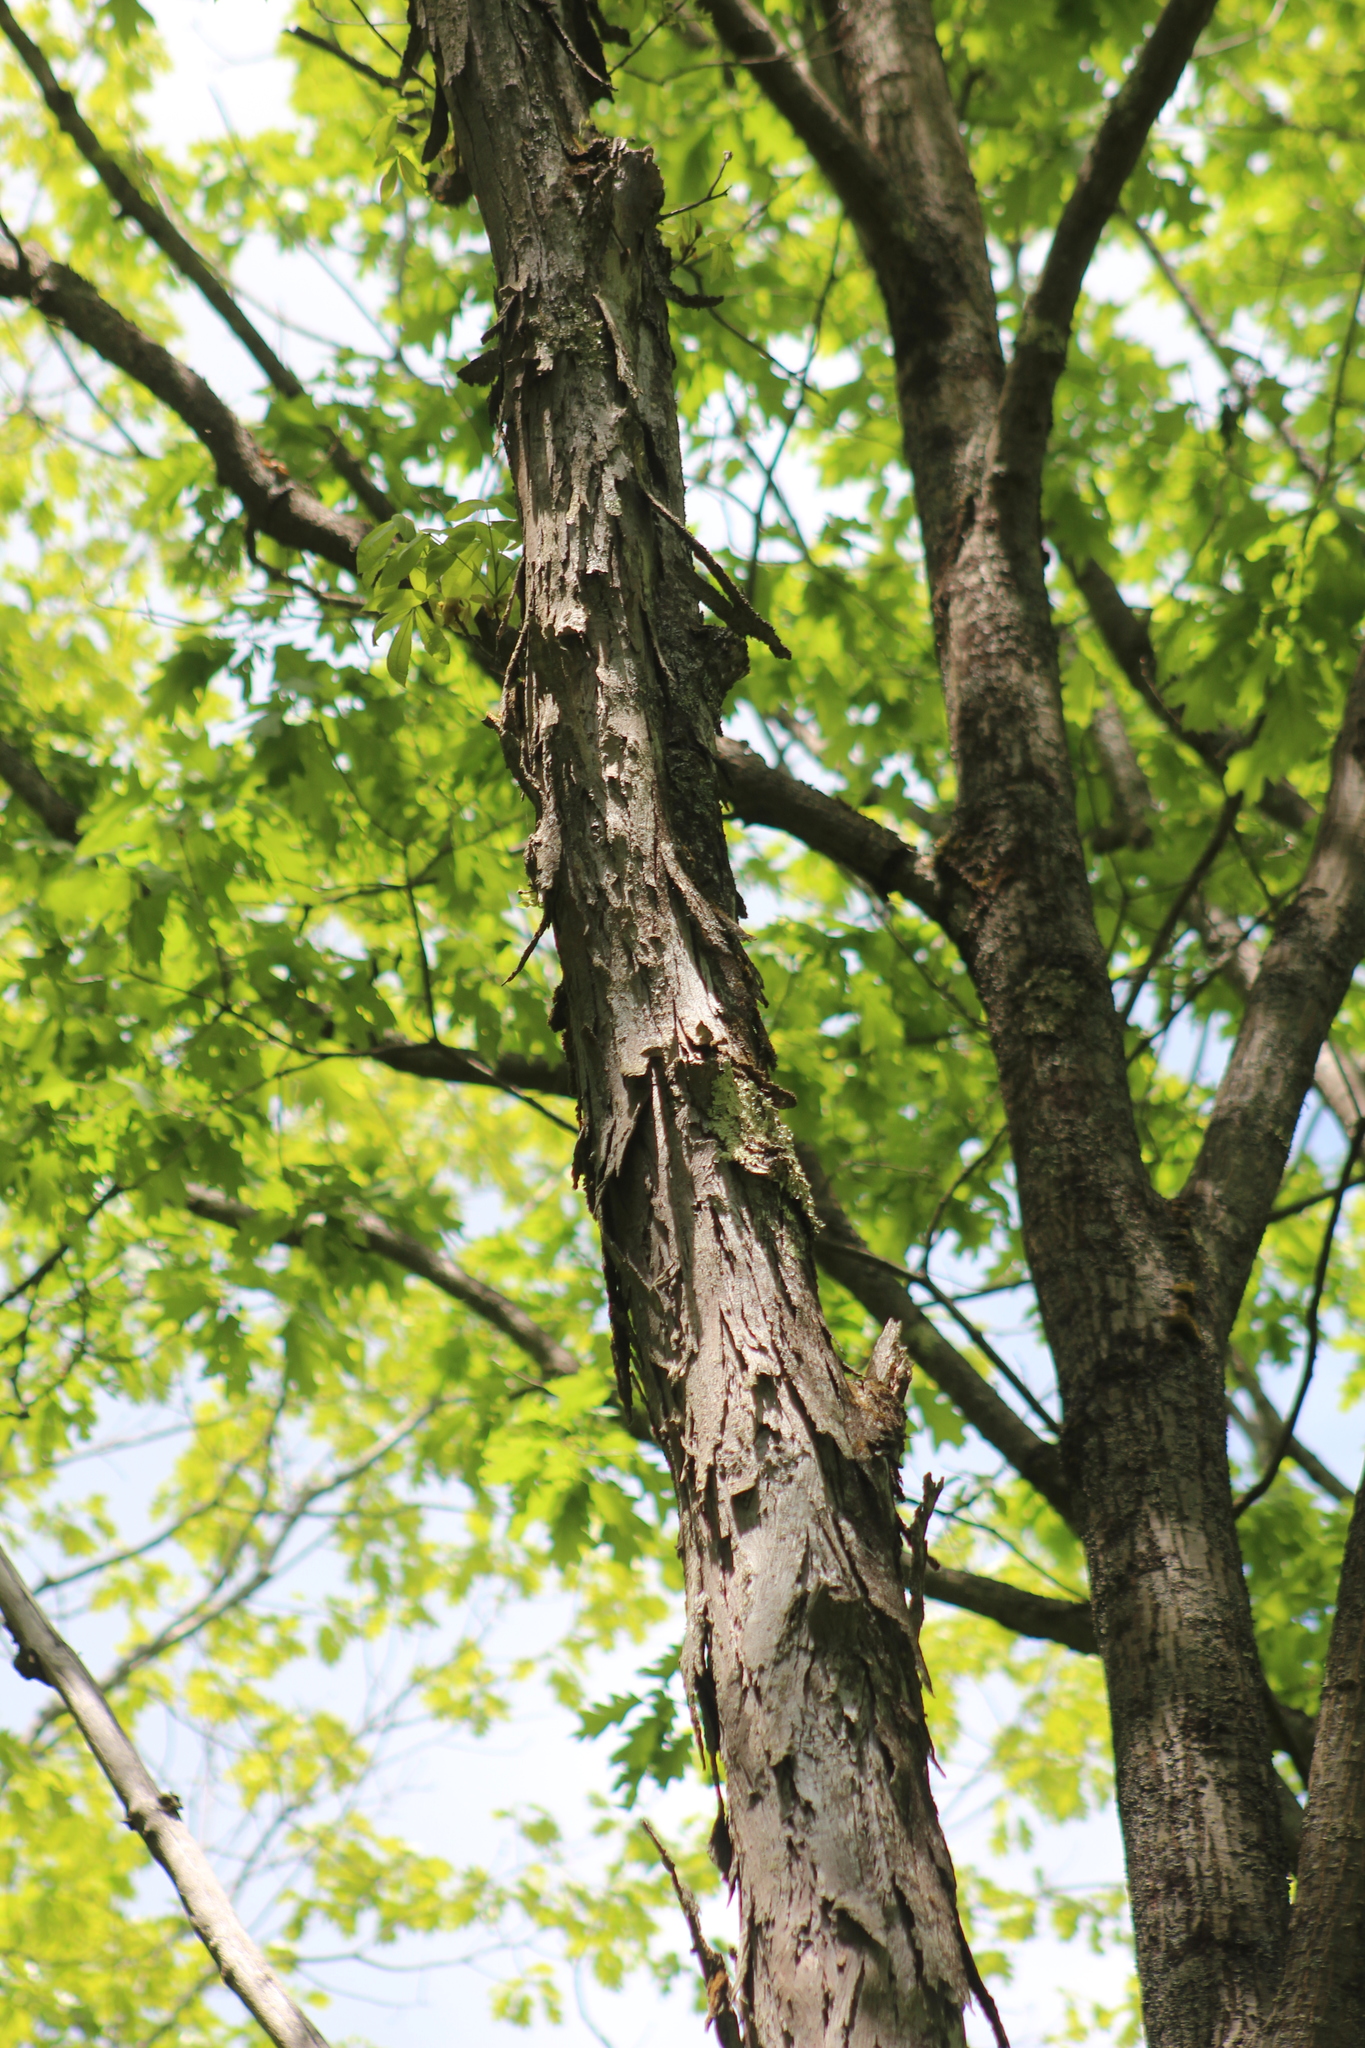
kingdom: Plantae
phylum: Tracheophyta
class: Magnoliopsida
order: Fagales
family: Juglandaceae
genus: Carya
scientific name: Carya ovata
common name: Shagbark hickory
